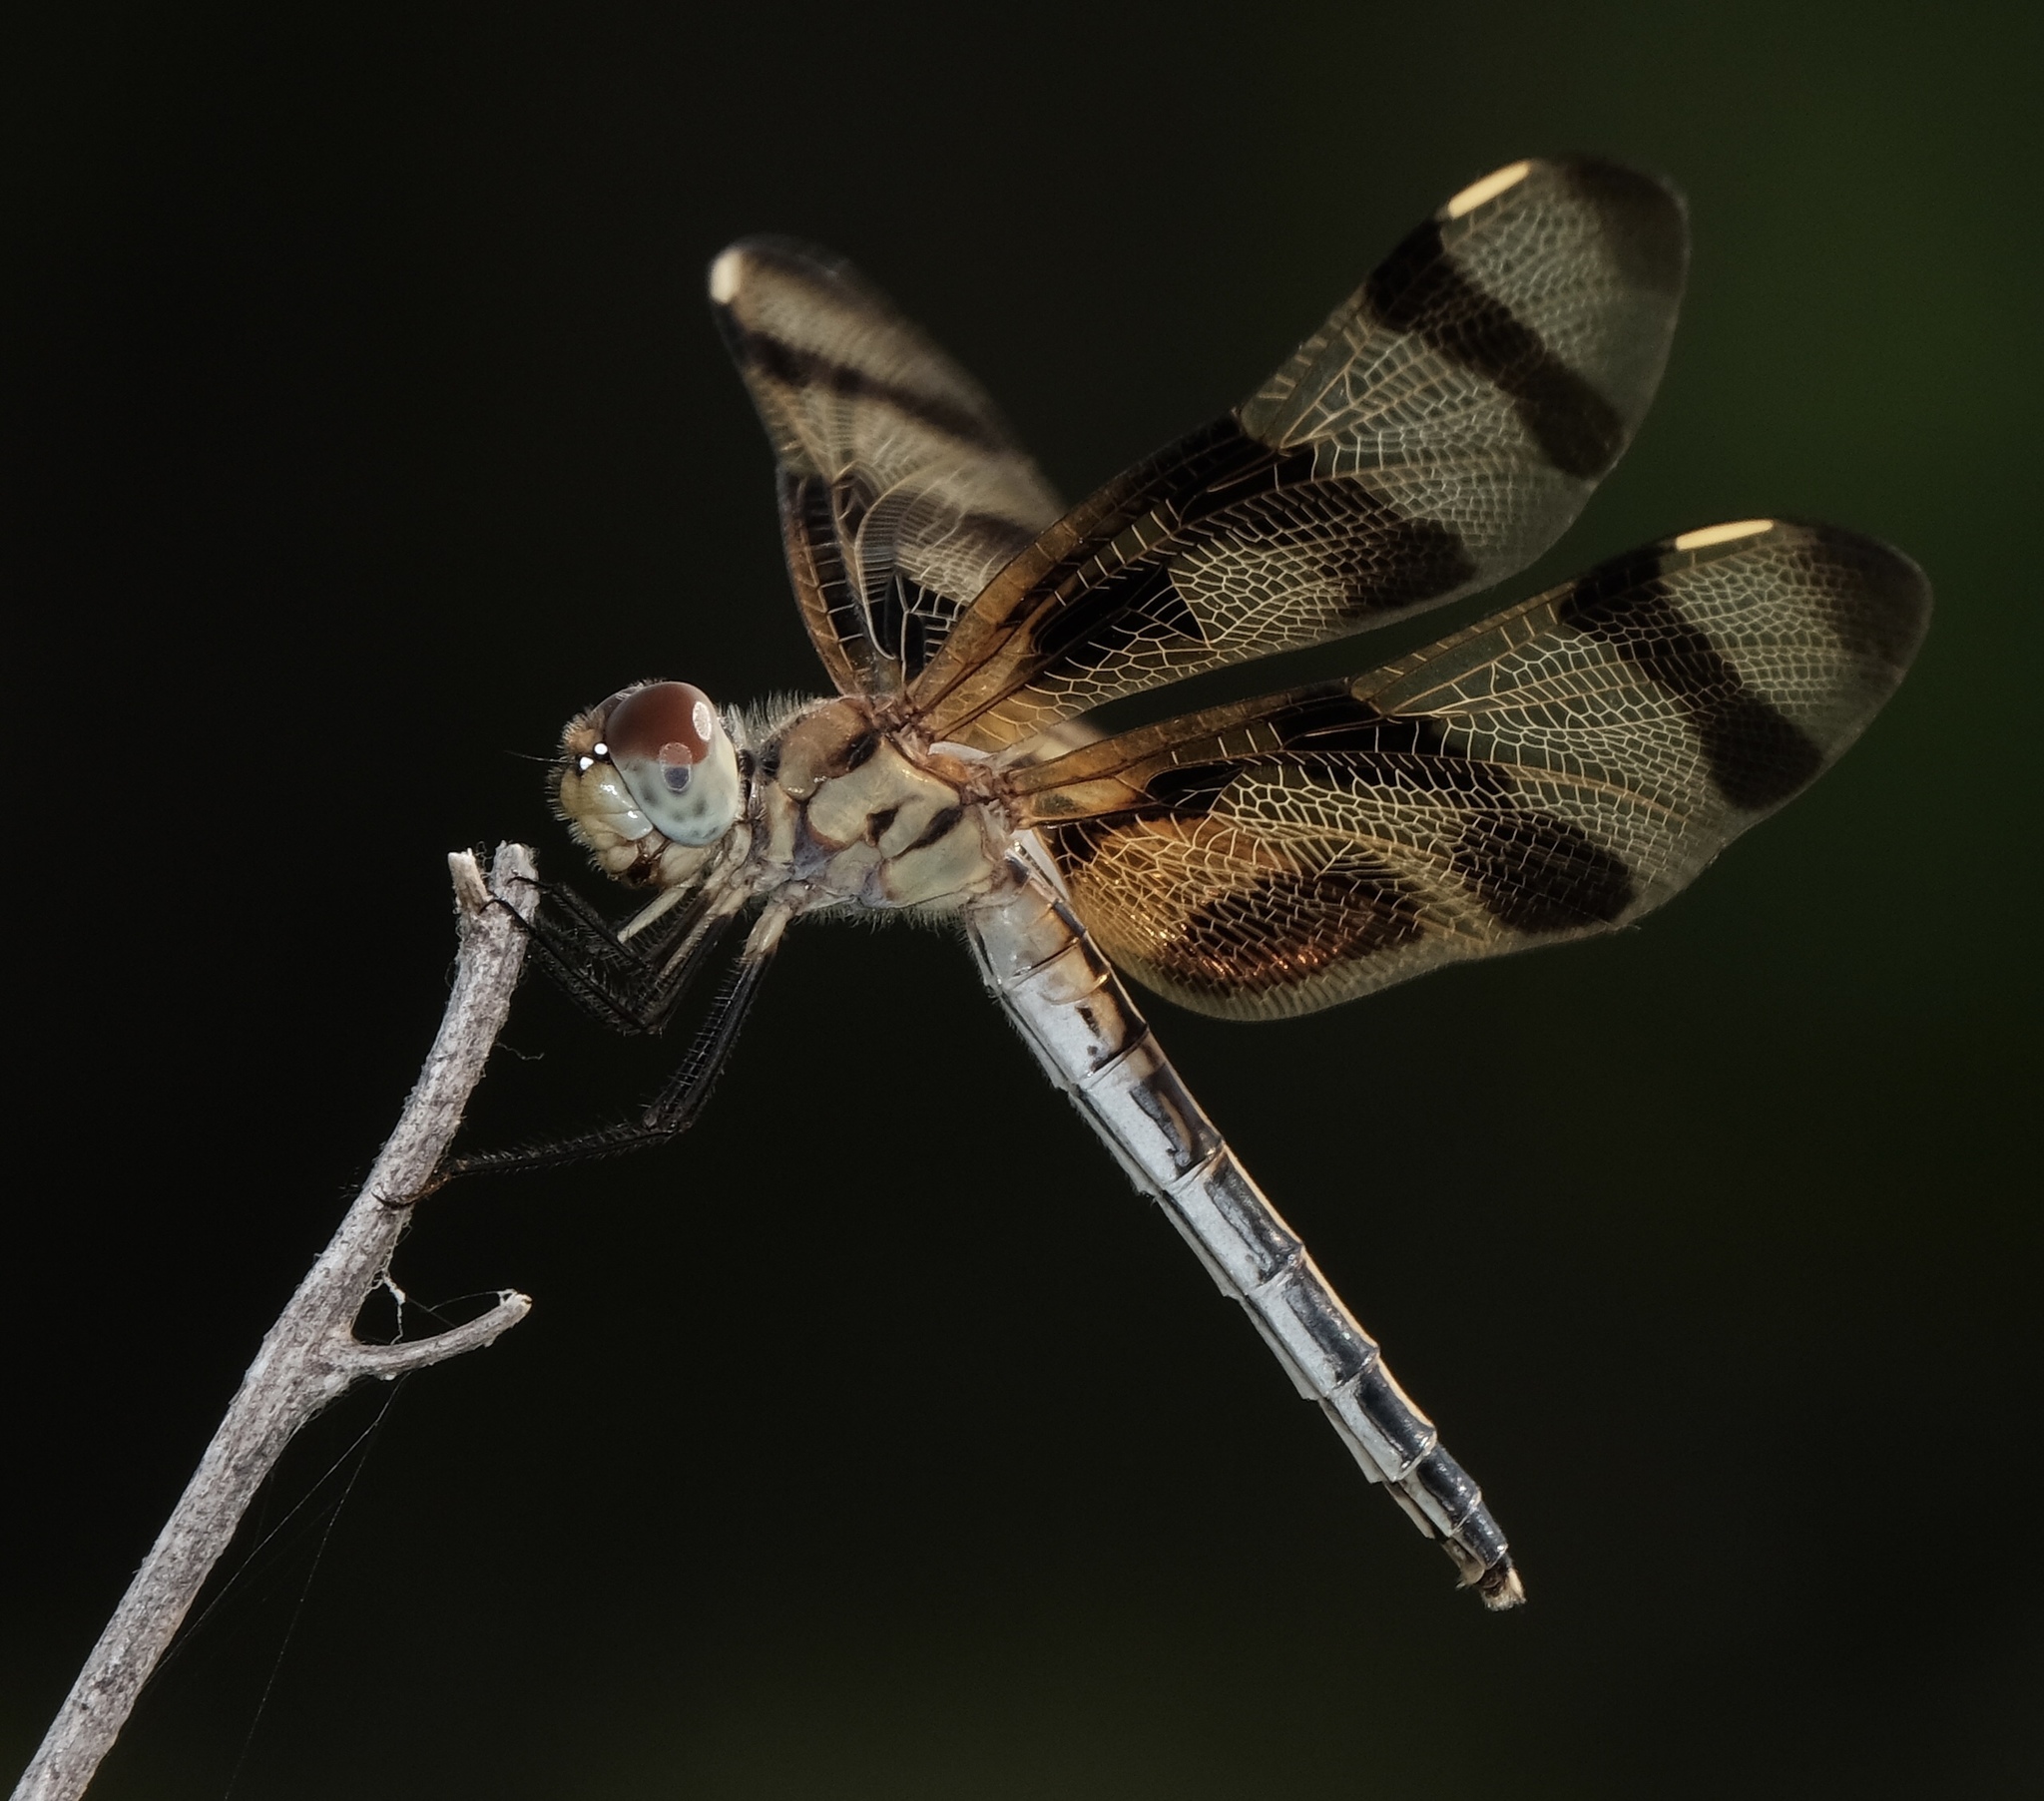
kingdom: Animalia
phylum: Arthropoda
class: Insecta
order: Odonata
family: Libellulidae
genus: Celithemis
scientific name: Celithemis eponina
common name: Halloween pennant
